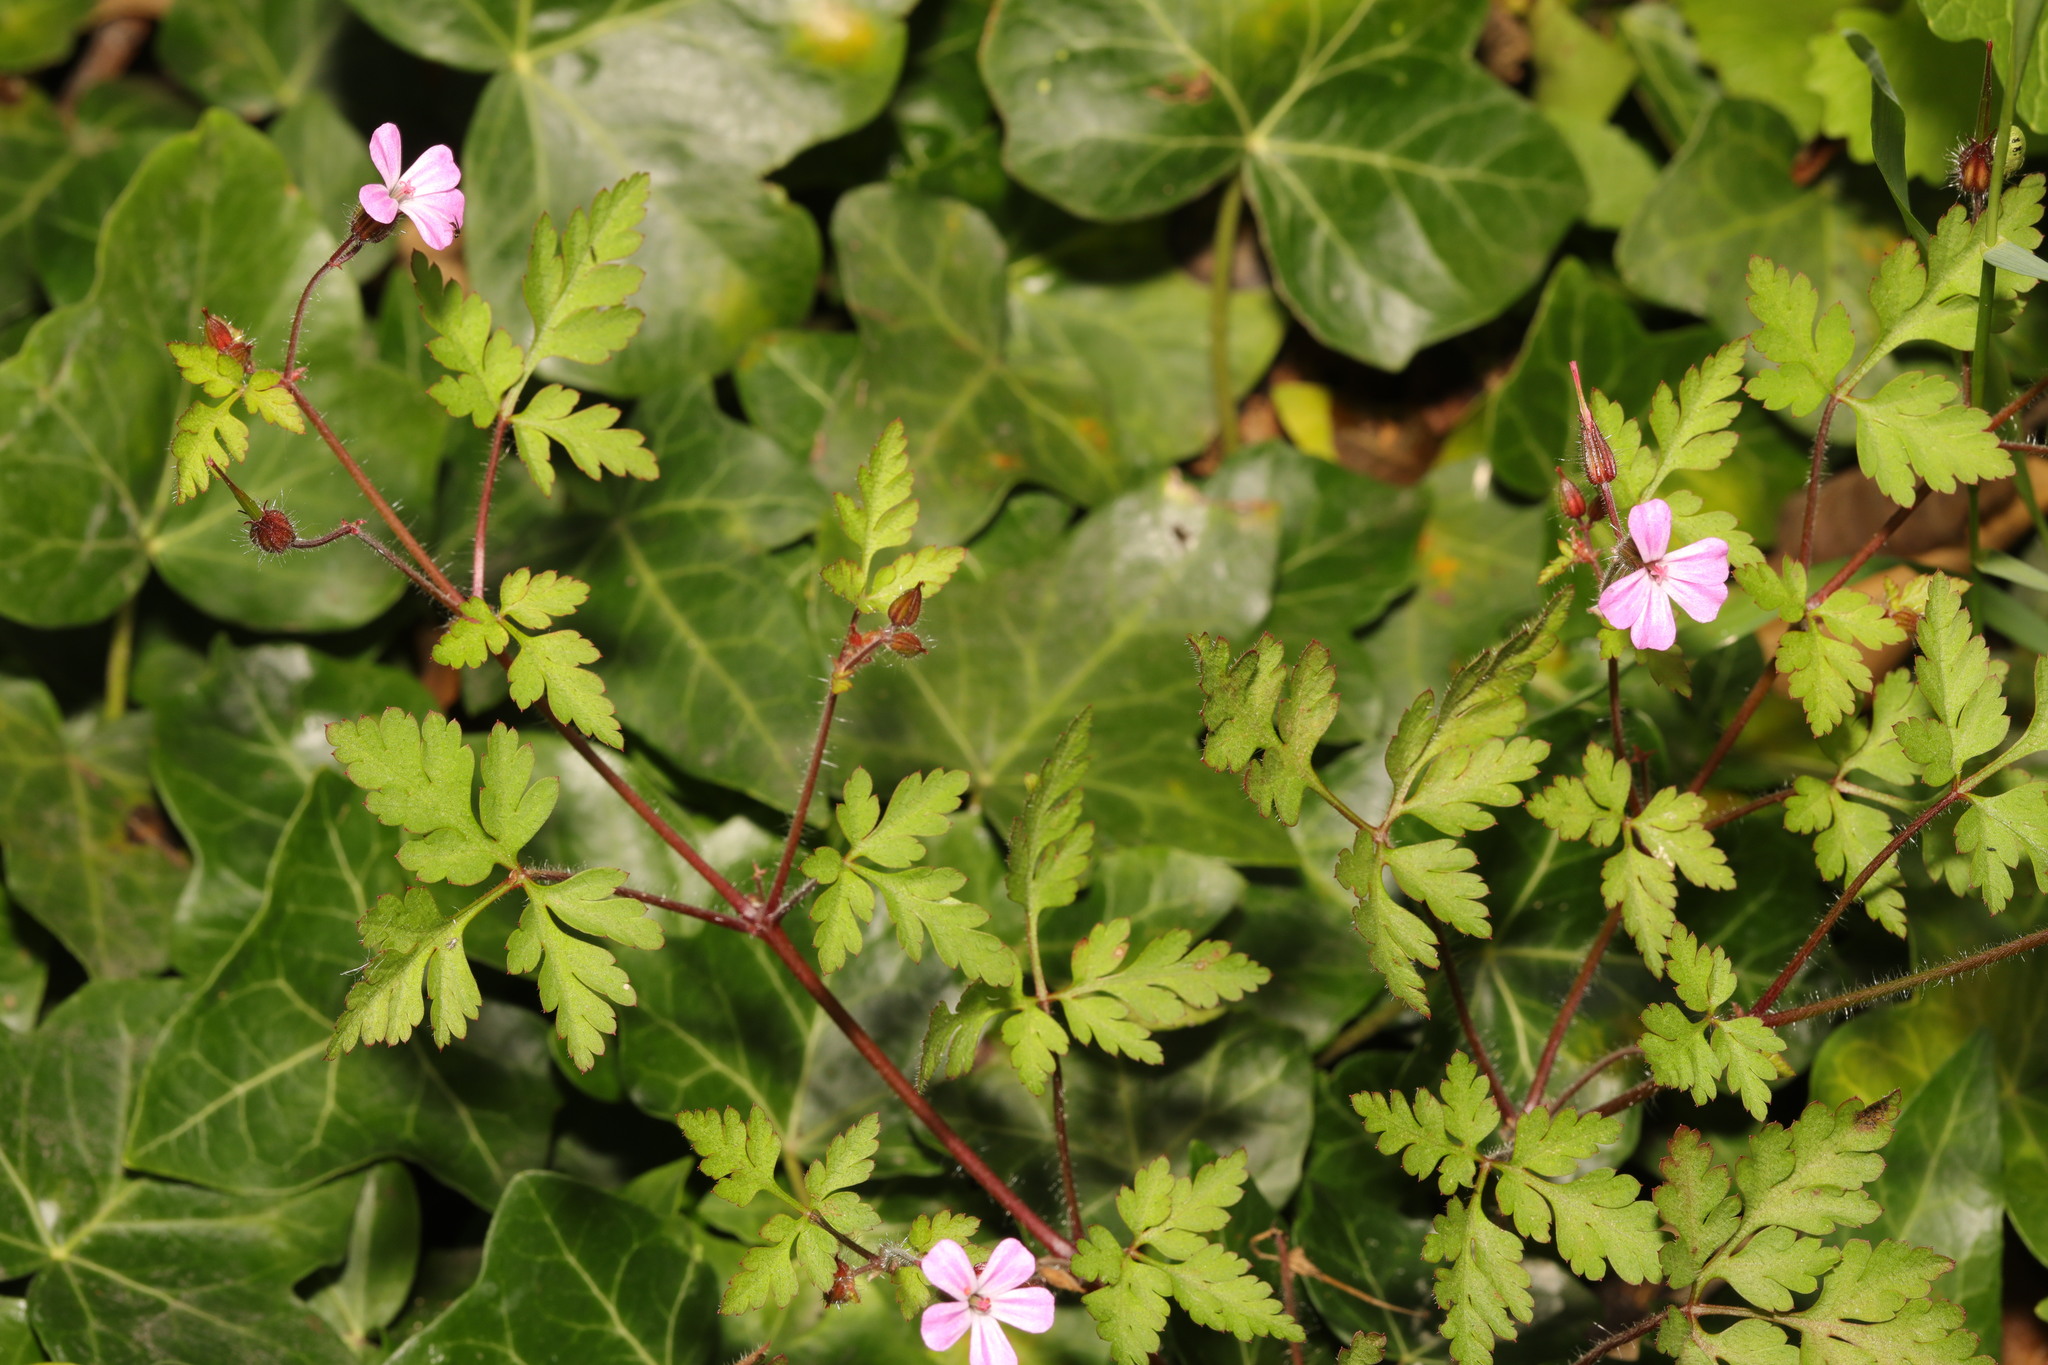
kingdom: Plantae
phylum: Tracheophyta
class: Magnoliopsida
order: Geraniales
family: Geraniaceae
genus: Geranium
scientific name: Geranium robertianum
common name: Herb-robert
